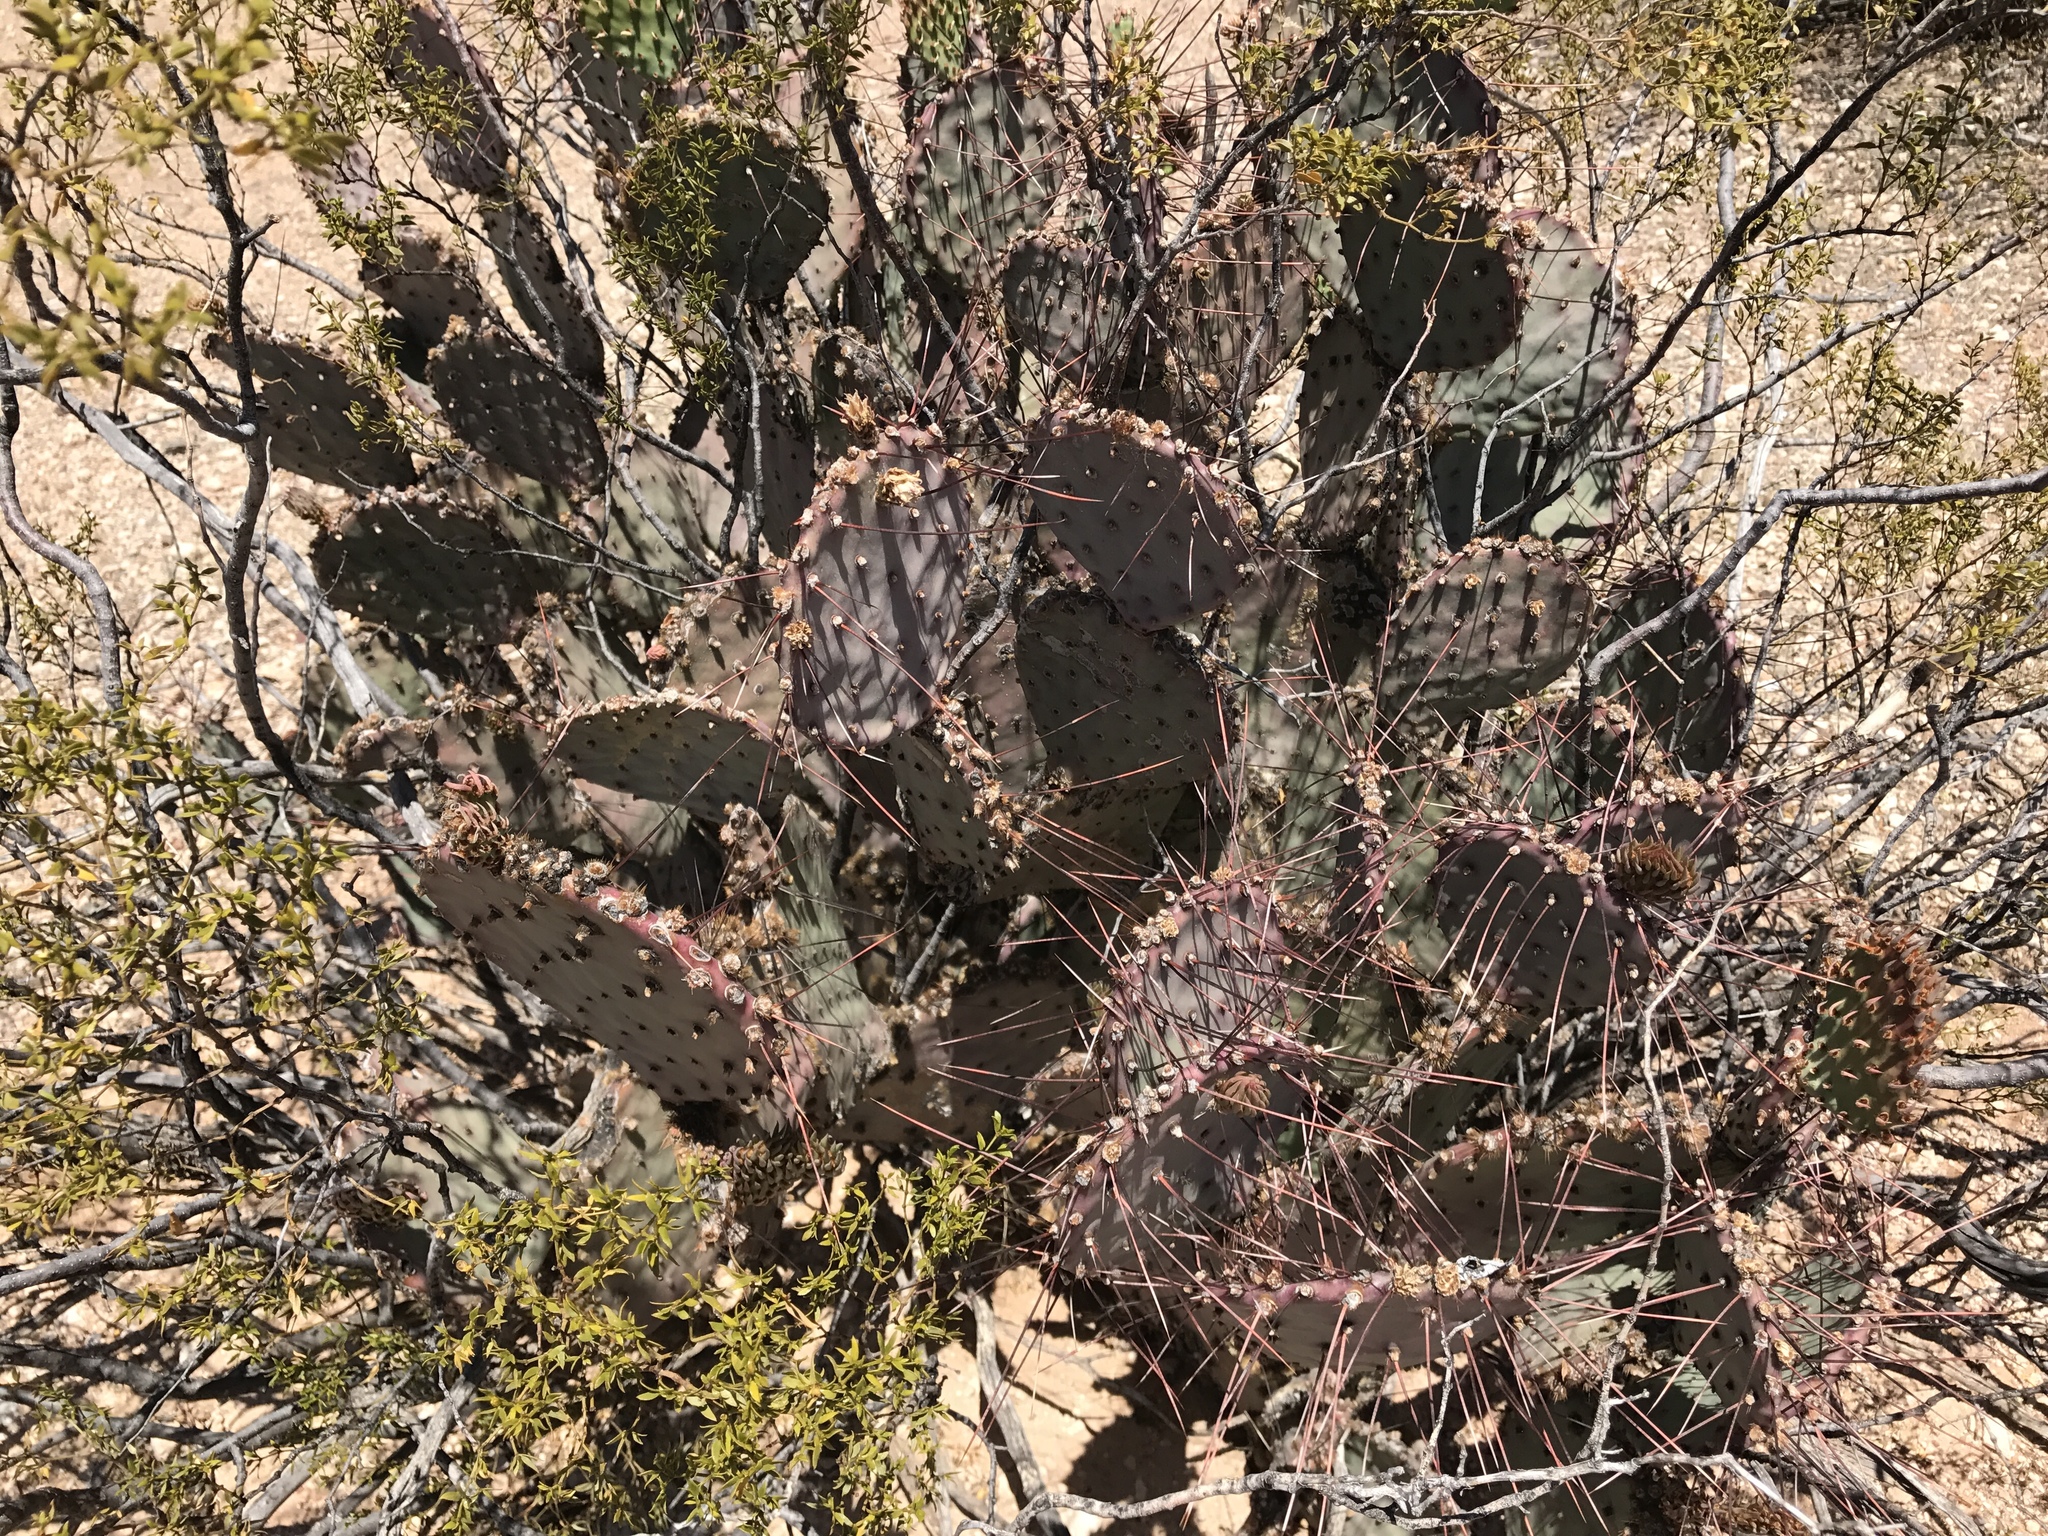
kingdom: Plantae
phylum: Tracheophyta
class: Magnoliopsida
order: Caryophyllales
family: Cactaceae
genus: Opuntia
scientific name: Opuntia macrocentra
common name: Purple prickly-pear
